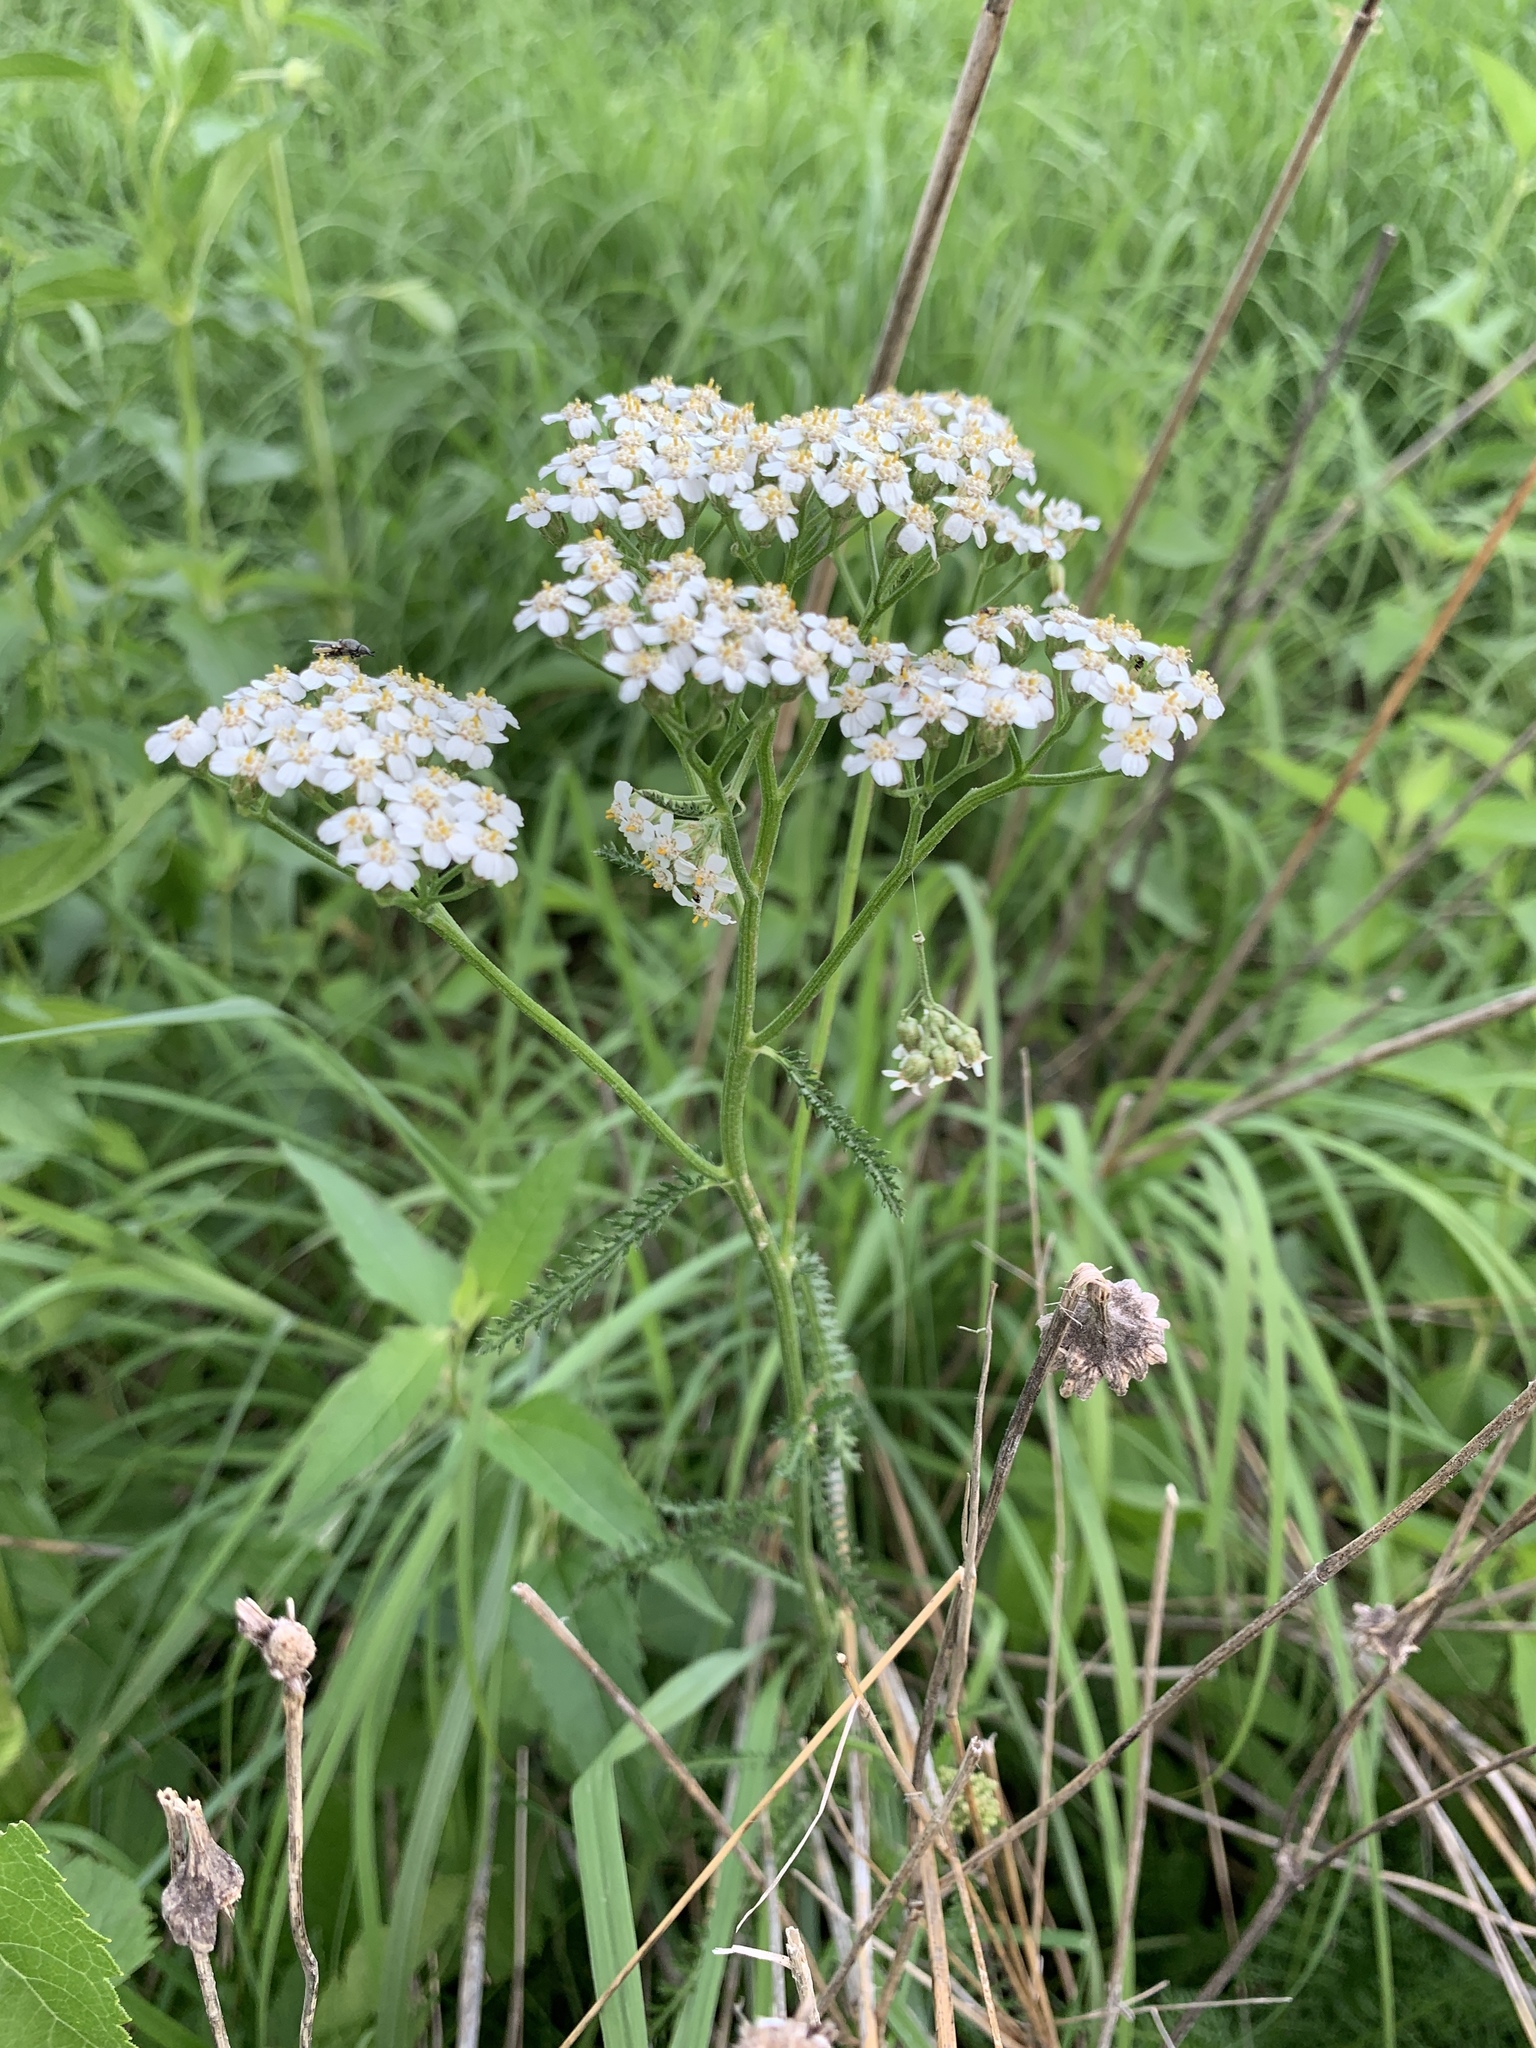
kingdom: Plantae
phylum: Tracheophyta
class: Magnoliopsida
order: Asterales
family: Asteraceae
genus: Achillea
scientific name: Achillea millefolium
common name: Yarrow
